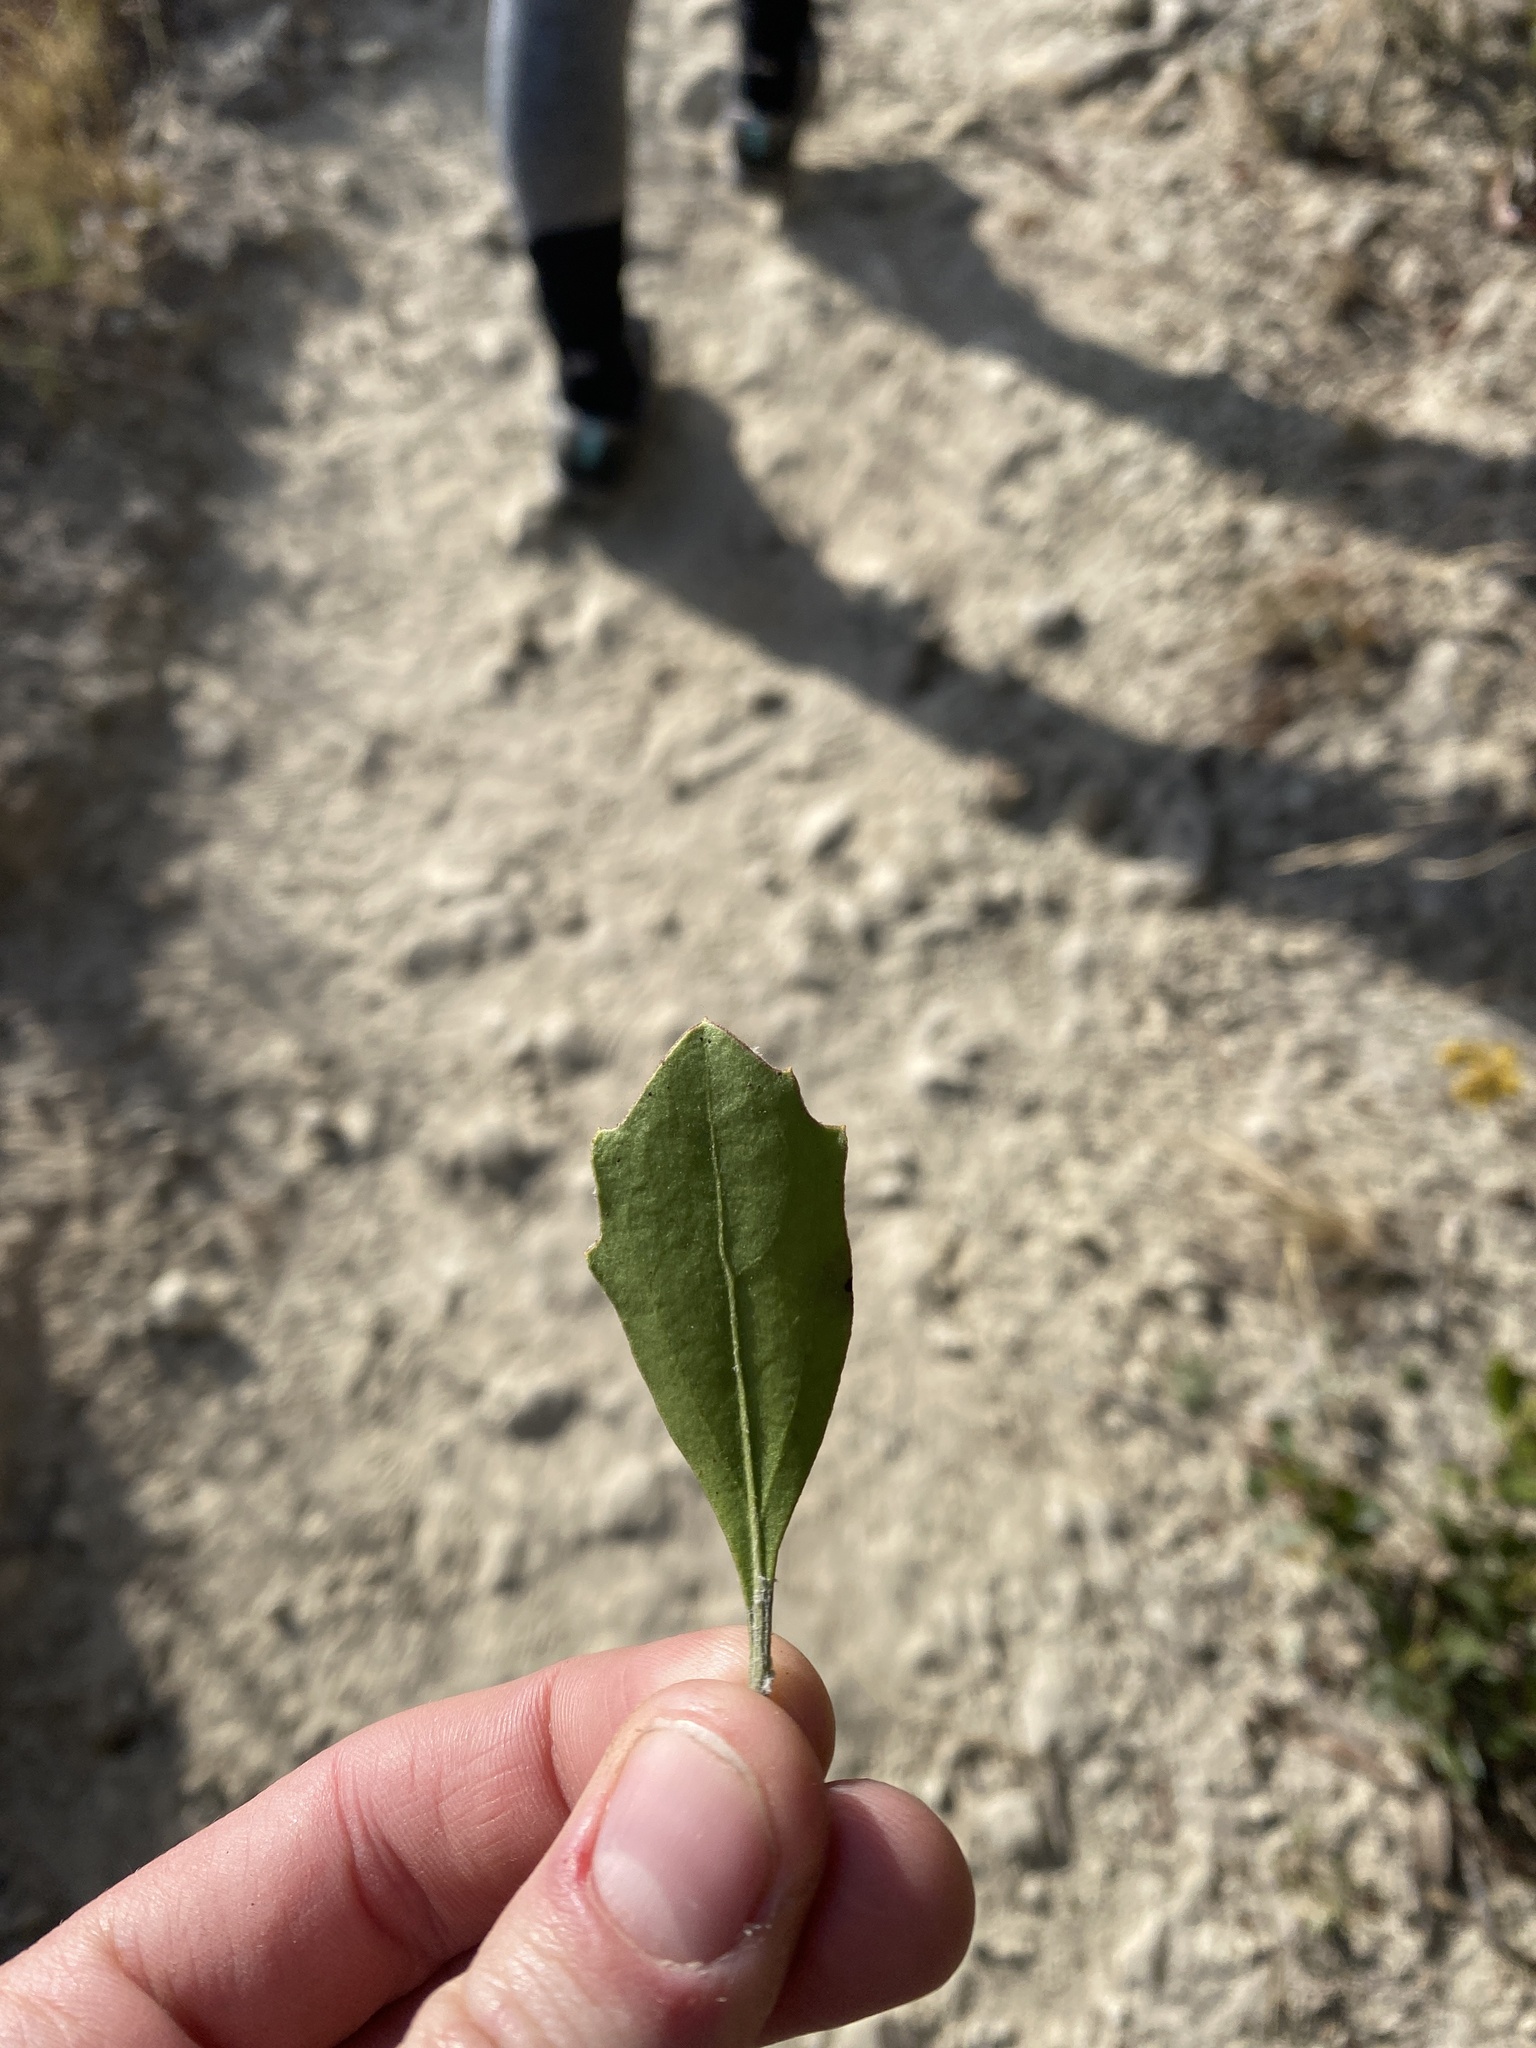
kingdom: Plantae
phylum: Tracheophyta
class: Magnoliopsida
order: Asterales
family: Asteraceae
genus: Osteospermum
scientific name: Osteospermum moniliferum
